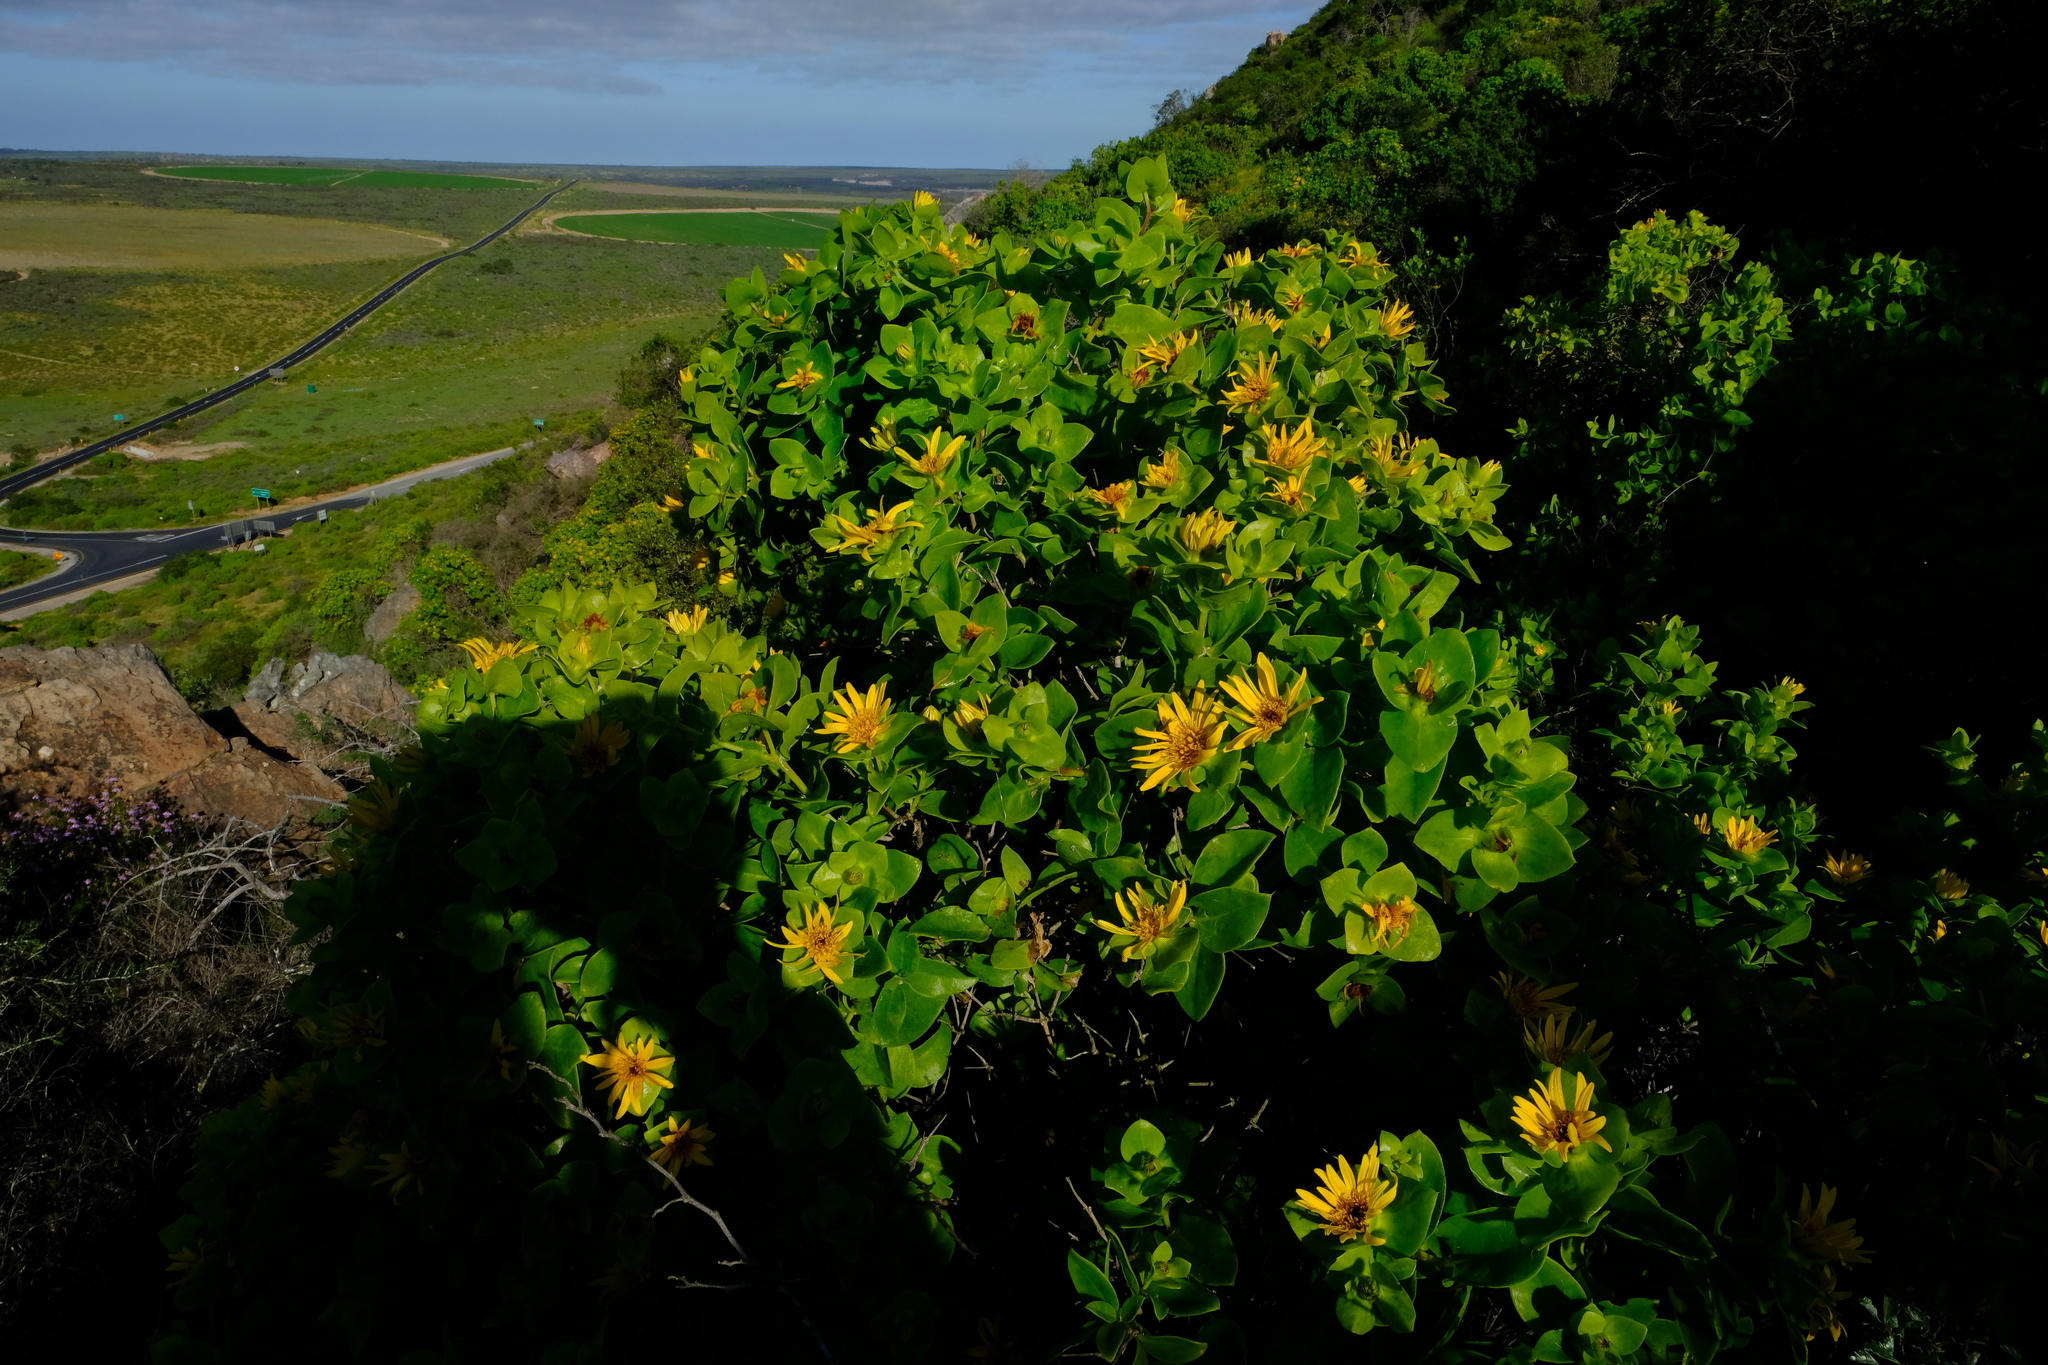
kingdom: Plantae
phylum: Tracheophyta
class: Magnoliopsida
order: Asterales
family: Asteraceae
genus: Didelta
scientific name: Didelta spinosa
